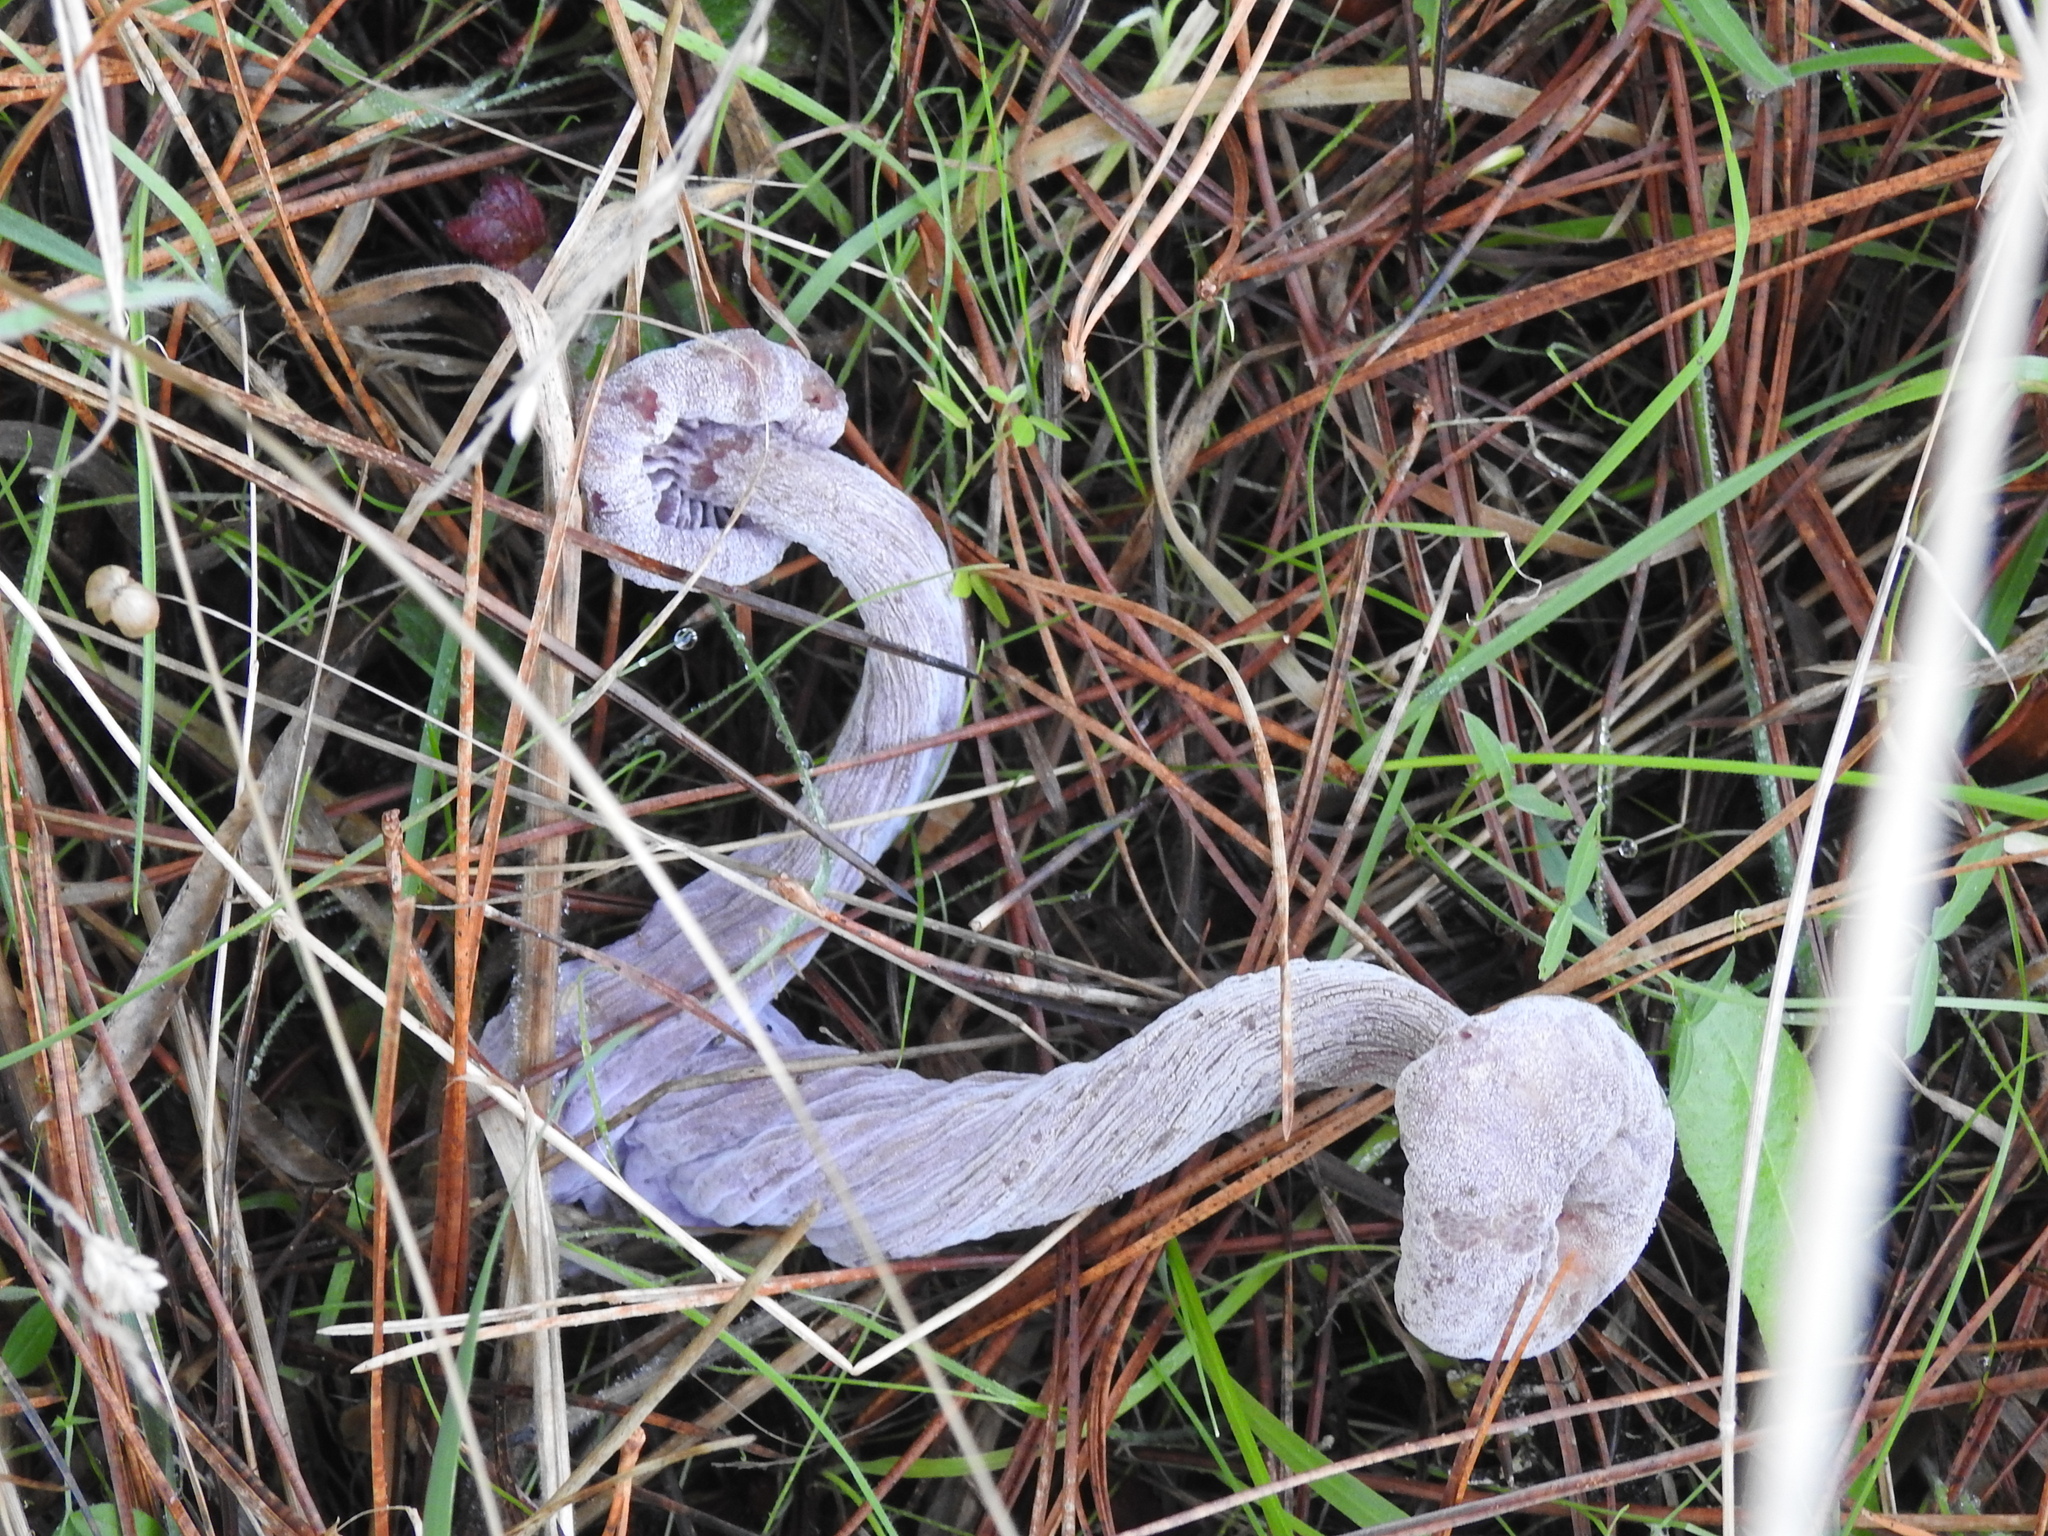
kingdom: Fungi
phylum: Basidiomycota
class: Agaricomycetes
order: Agaricales
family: Hydnangiaceae
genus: Laccaria
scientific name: Laccaria amethysteo-occidentalis
